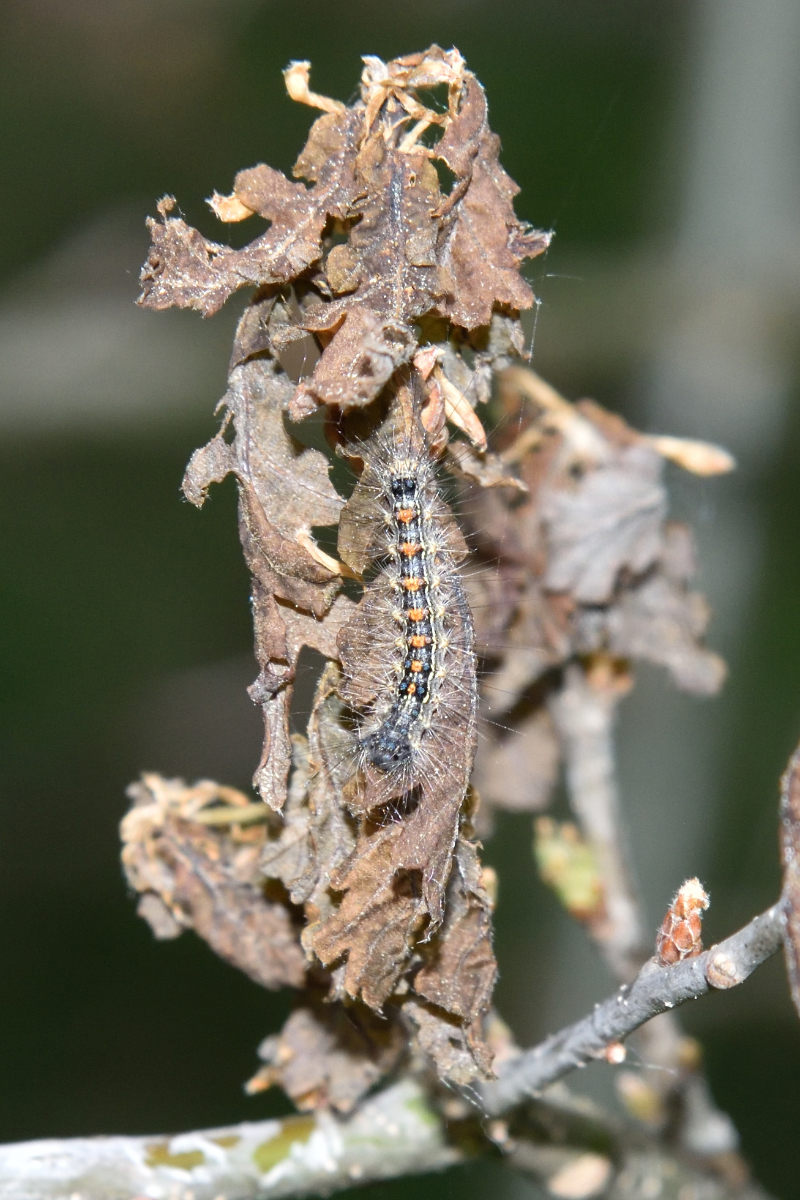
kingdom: Animalia
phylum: Arthropoda
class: Insecta
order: Lepidoptera
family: Erebidae
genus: Lymantria
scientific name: Lymantria dispar
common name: Gypsy moth
